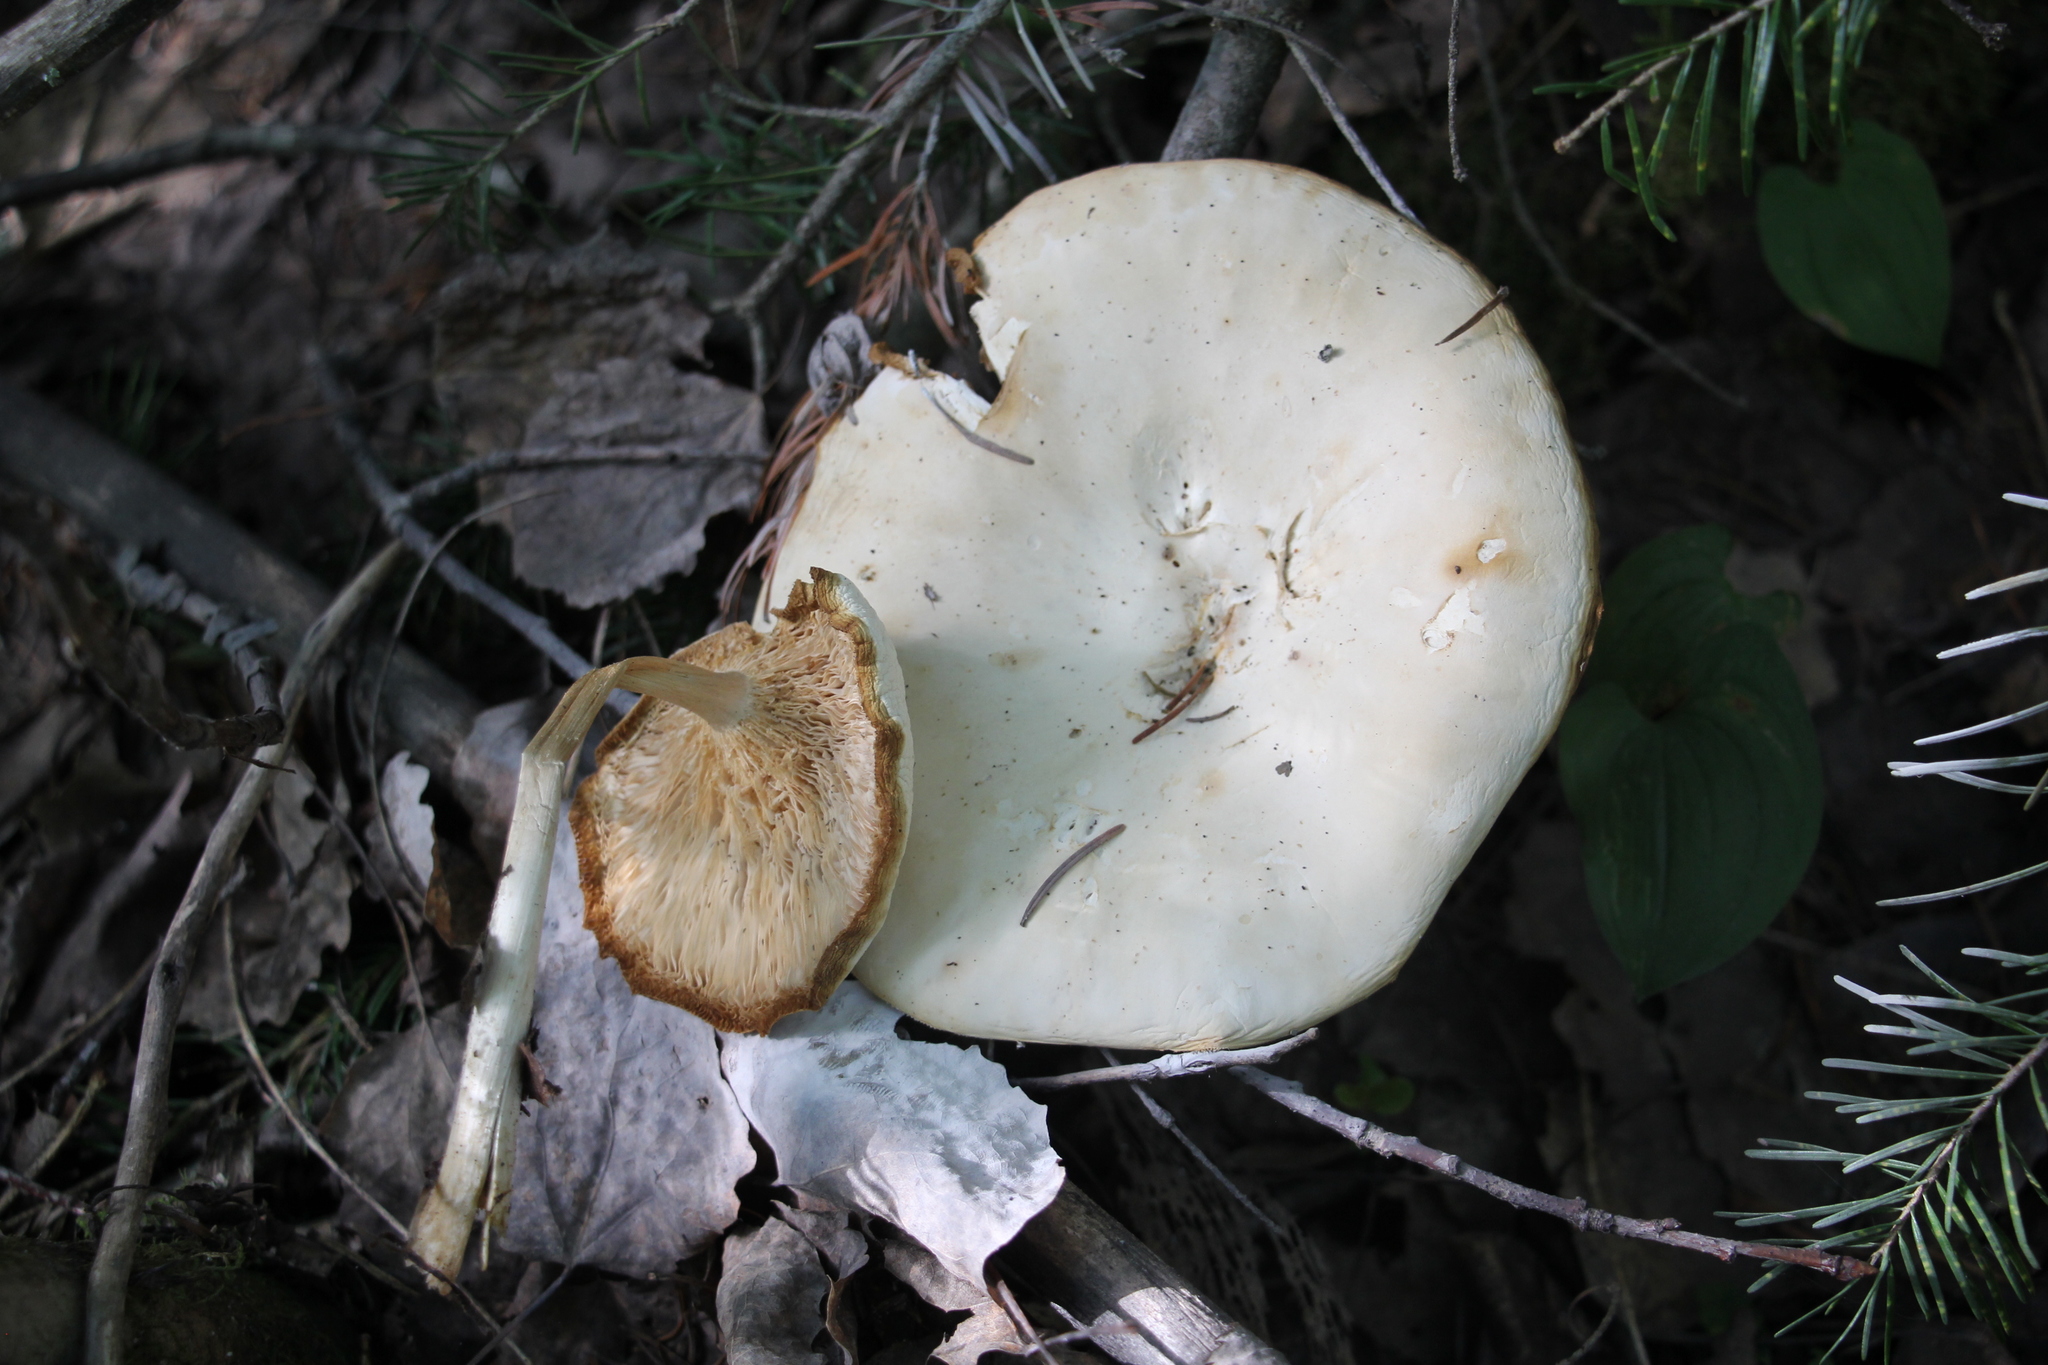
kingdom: Fungi
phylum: Basidiomycota
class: Agaricomycetes
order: Agaricales
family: Tricholomataceae
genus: Melanoleuca
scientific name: Melanoleuca strictipes
